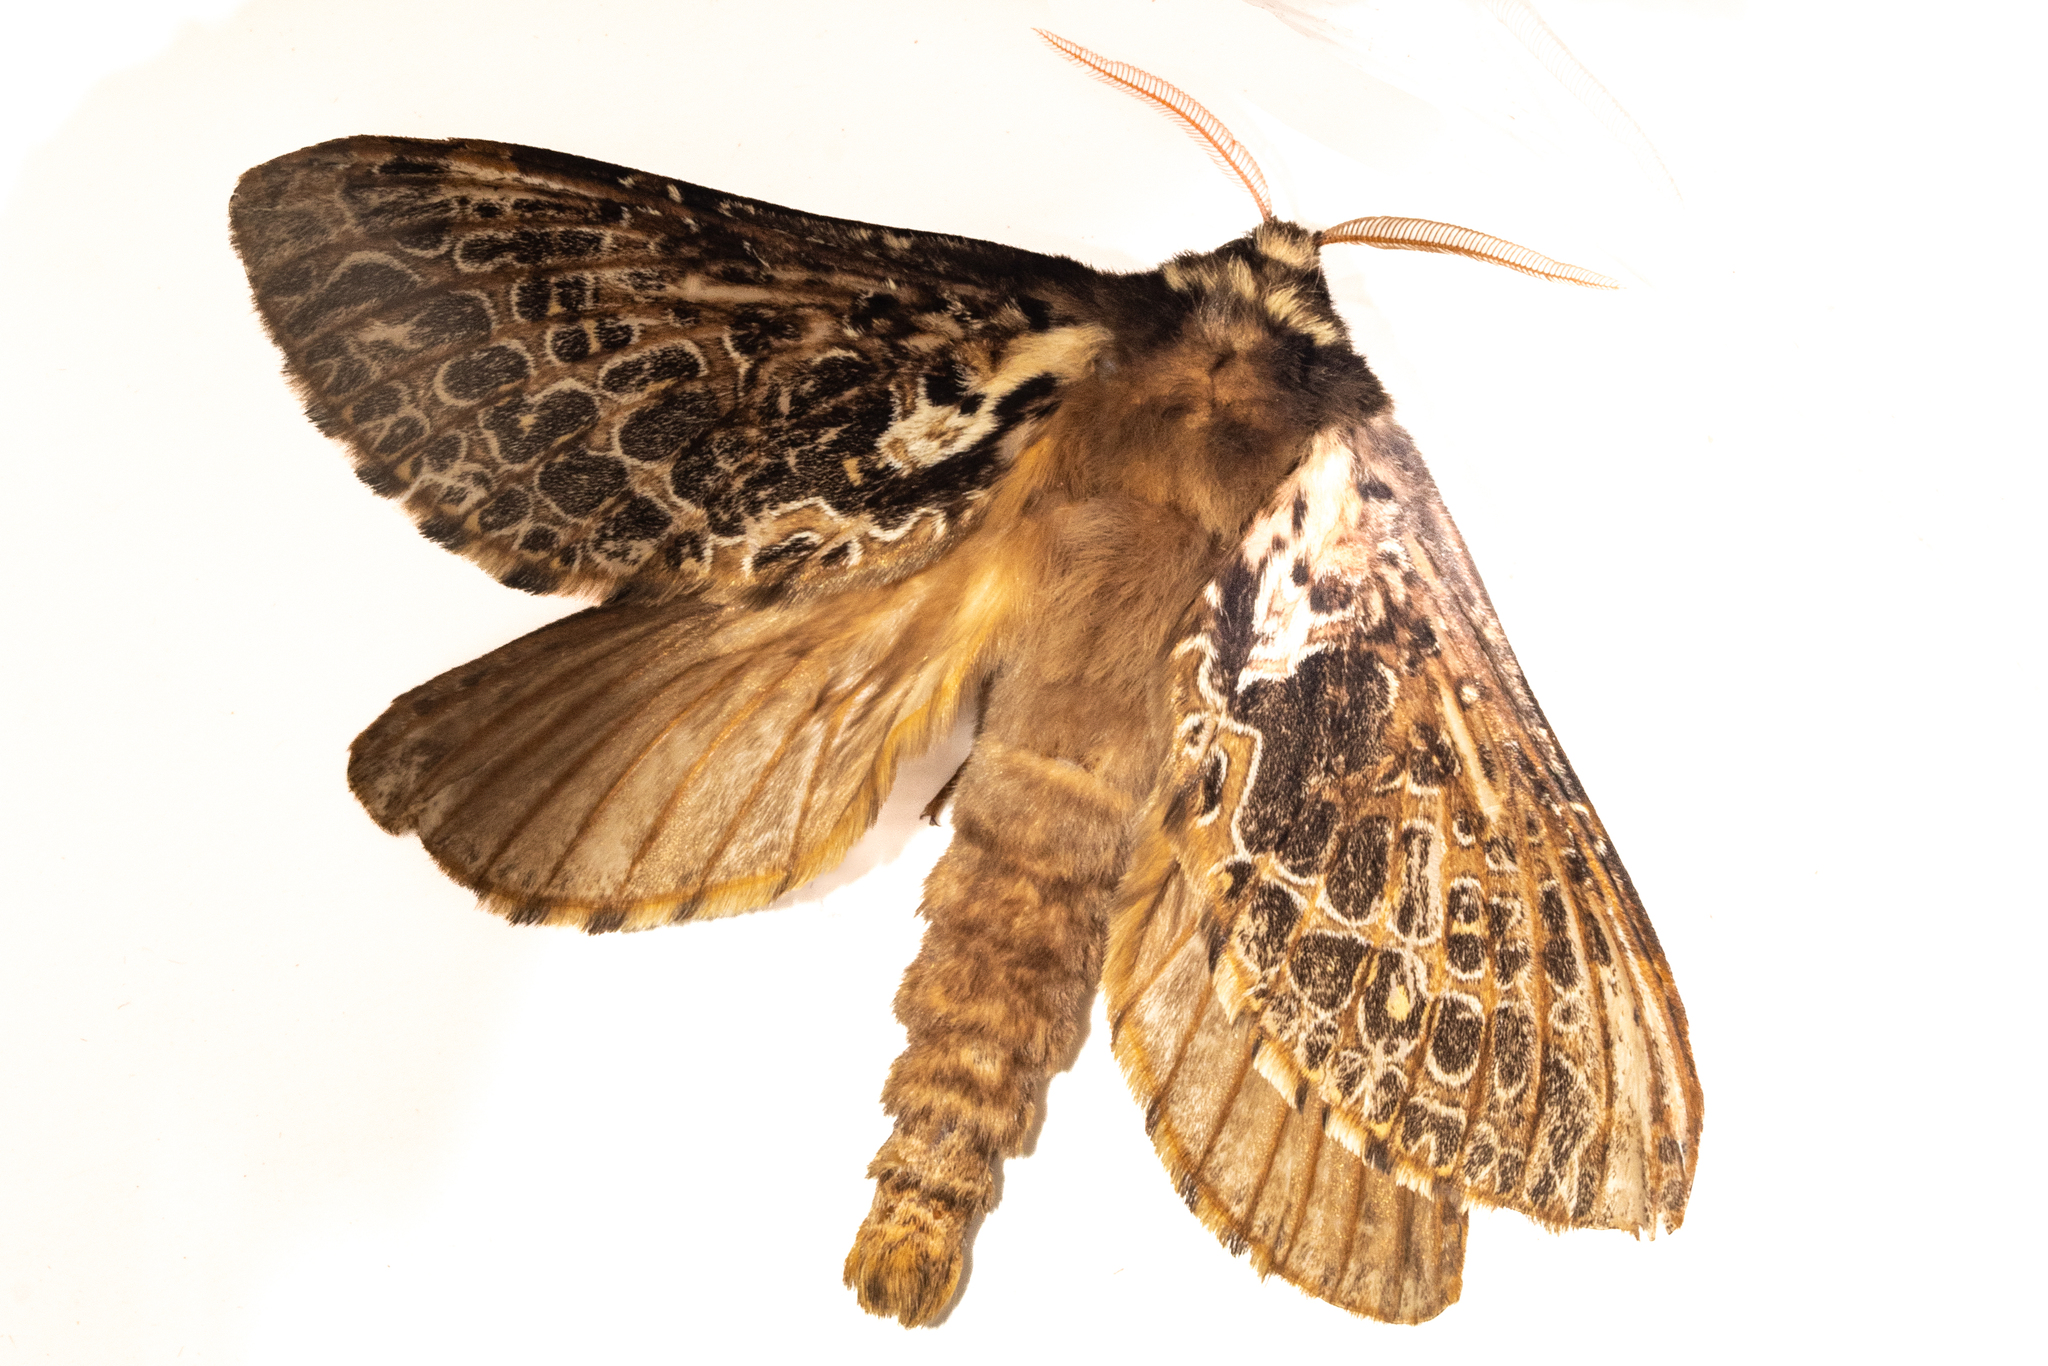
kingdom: Animalia
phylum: Arthropoda
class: Insecta
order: Lepidoptera
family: Hepialidae
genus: Aoraia
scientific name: Aoraia rufivena
